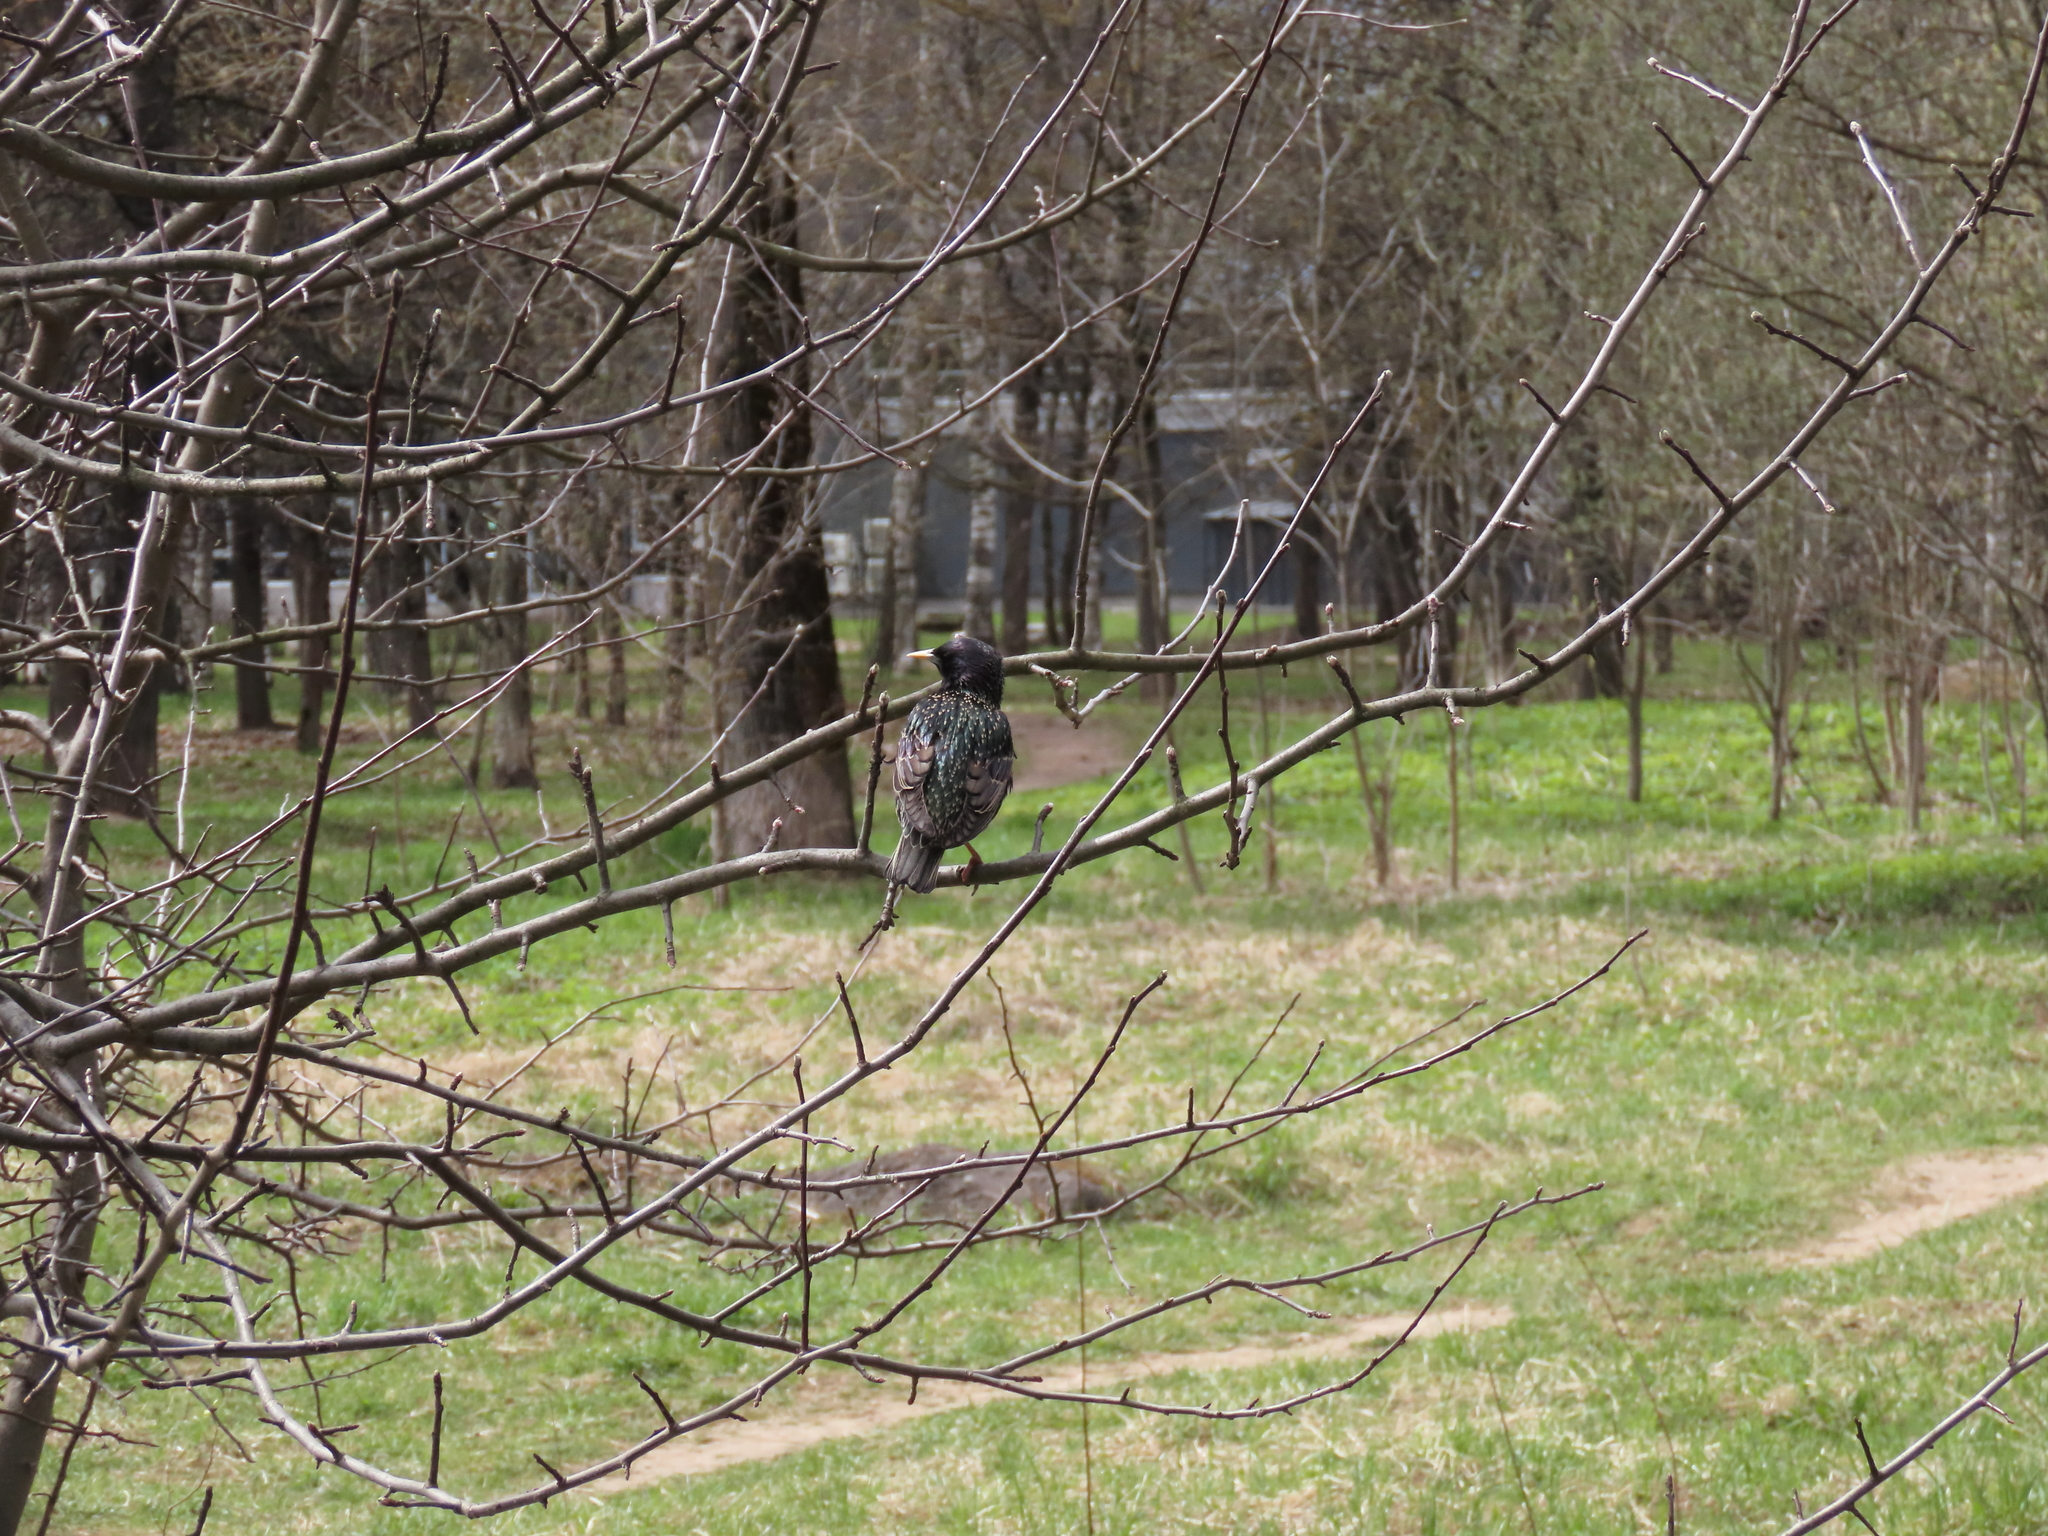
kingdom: Animalia
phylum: Chordata
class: Aves
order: Passeriformes
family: Sturnidae
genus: Sturnus
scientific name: Sturnus vulgaris
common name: Common starling
